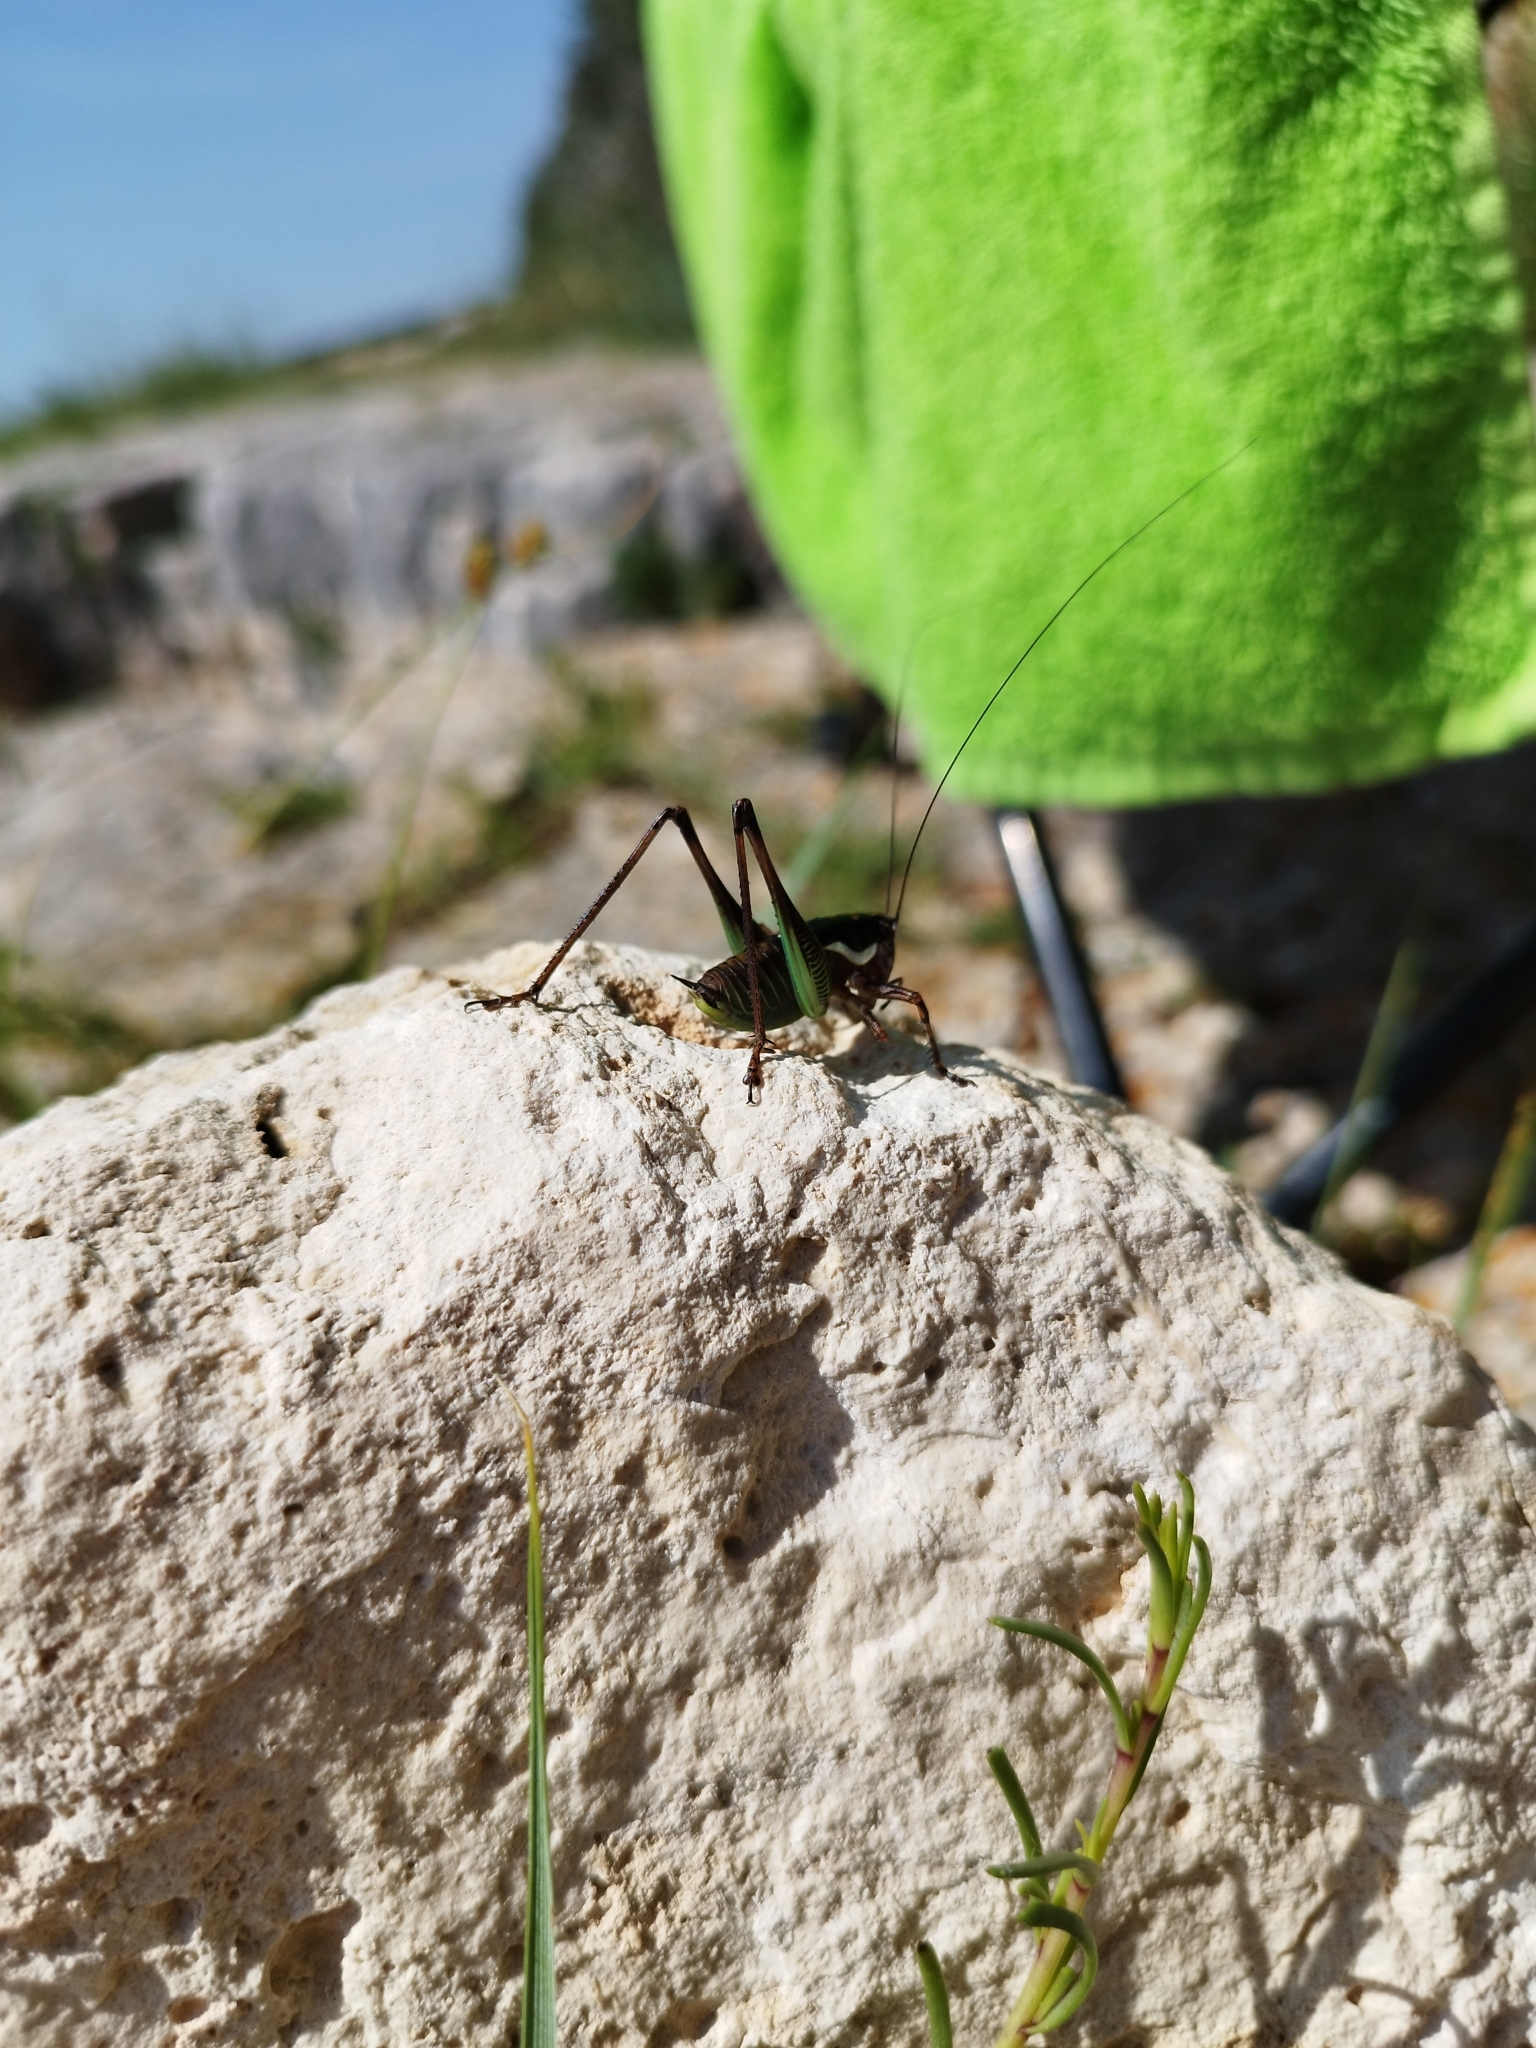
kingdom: Animalia
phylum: Arthropoda
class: Insecta
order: Orthoptera
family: Tettigoniidae
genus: Eupholidoptera
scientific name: Eupholidoptera schmidti
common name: Schmidt's marbled bush-cricket
